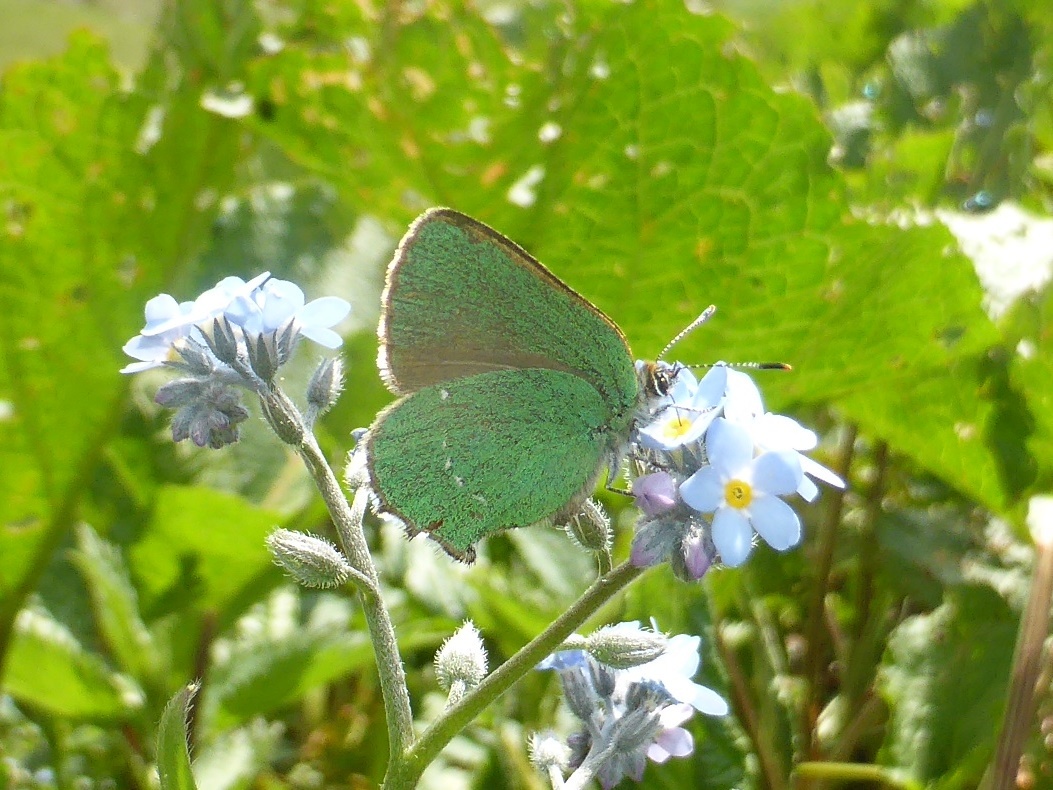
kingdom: Animalia
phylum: Arthropoda
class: Insecta
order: Lepidoptera
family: Lycaenidae
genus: Callophrys
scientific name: Callophrys rubi
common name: Green hairstreak
